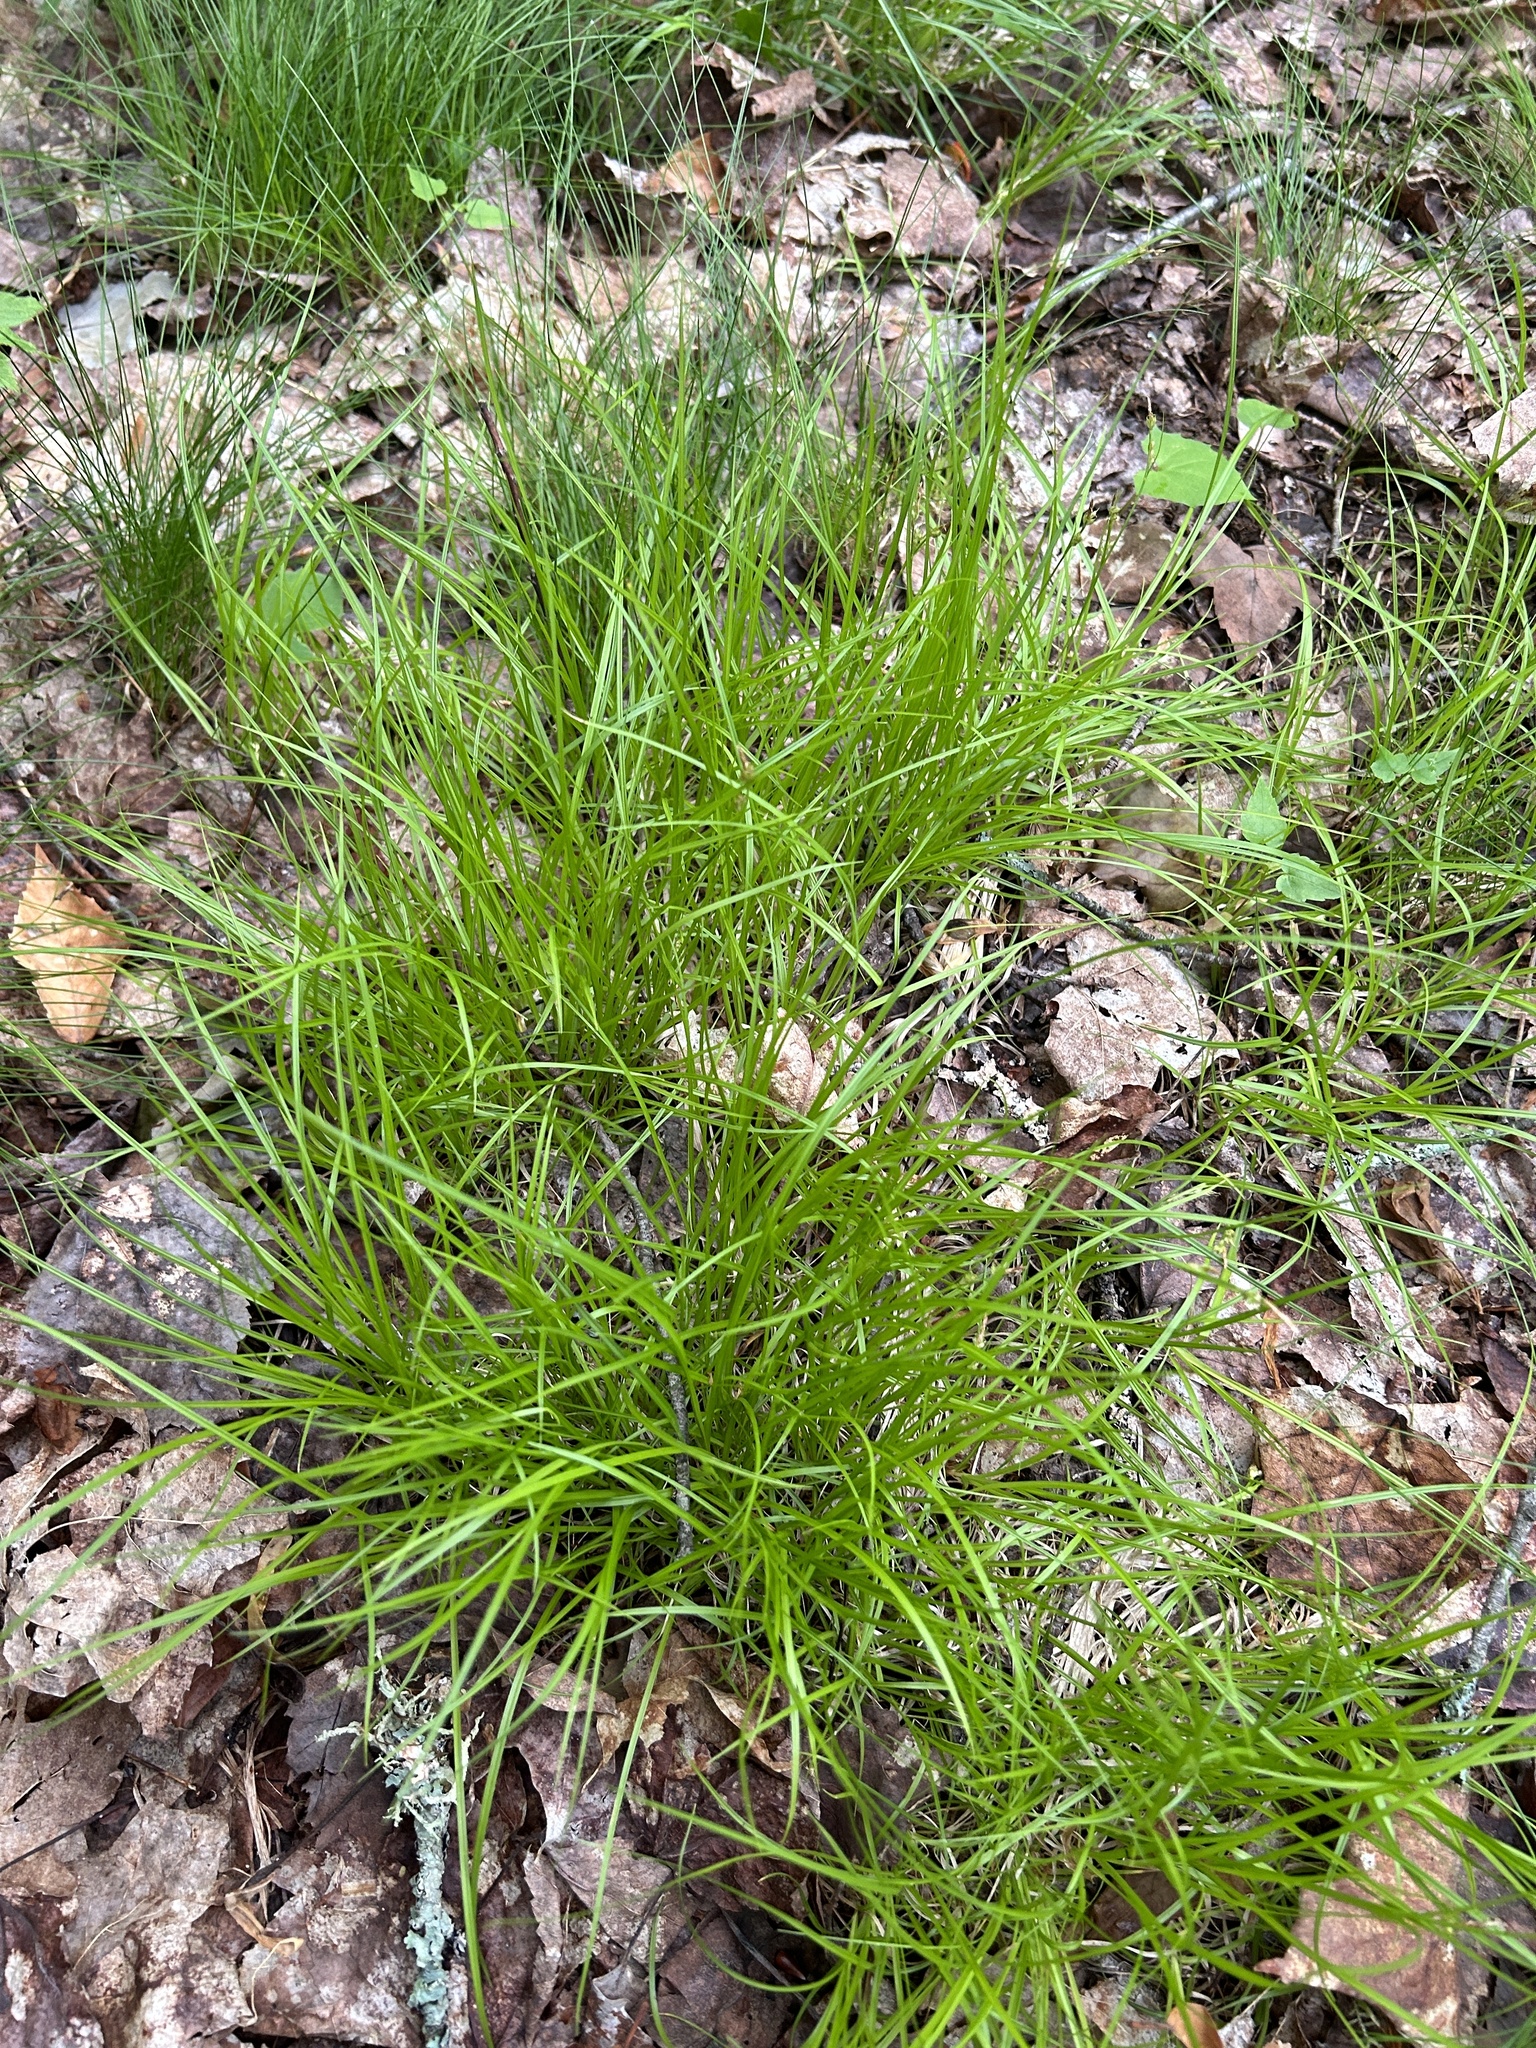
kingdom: Plantae
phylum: Tracheophyta
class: Liliopsida
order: Poales
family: Cyperaceae
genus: Carex
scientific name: Carex novae-angliae
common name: New england sedge
